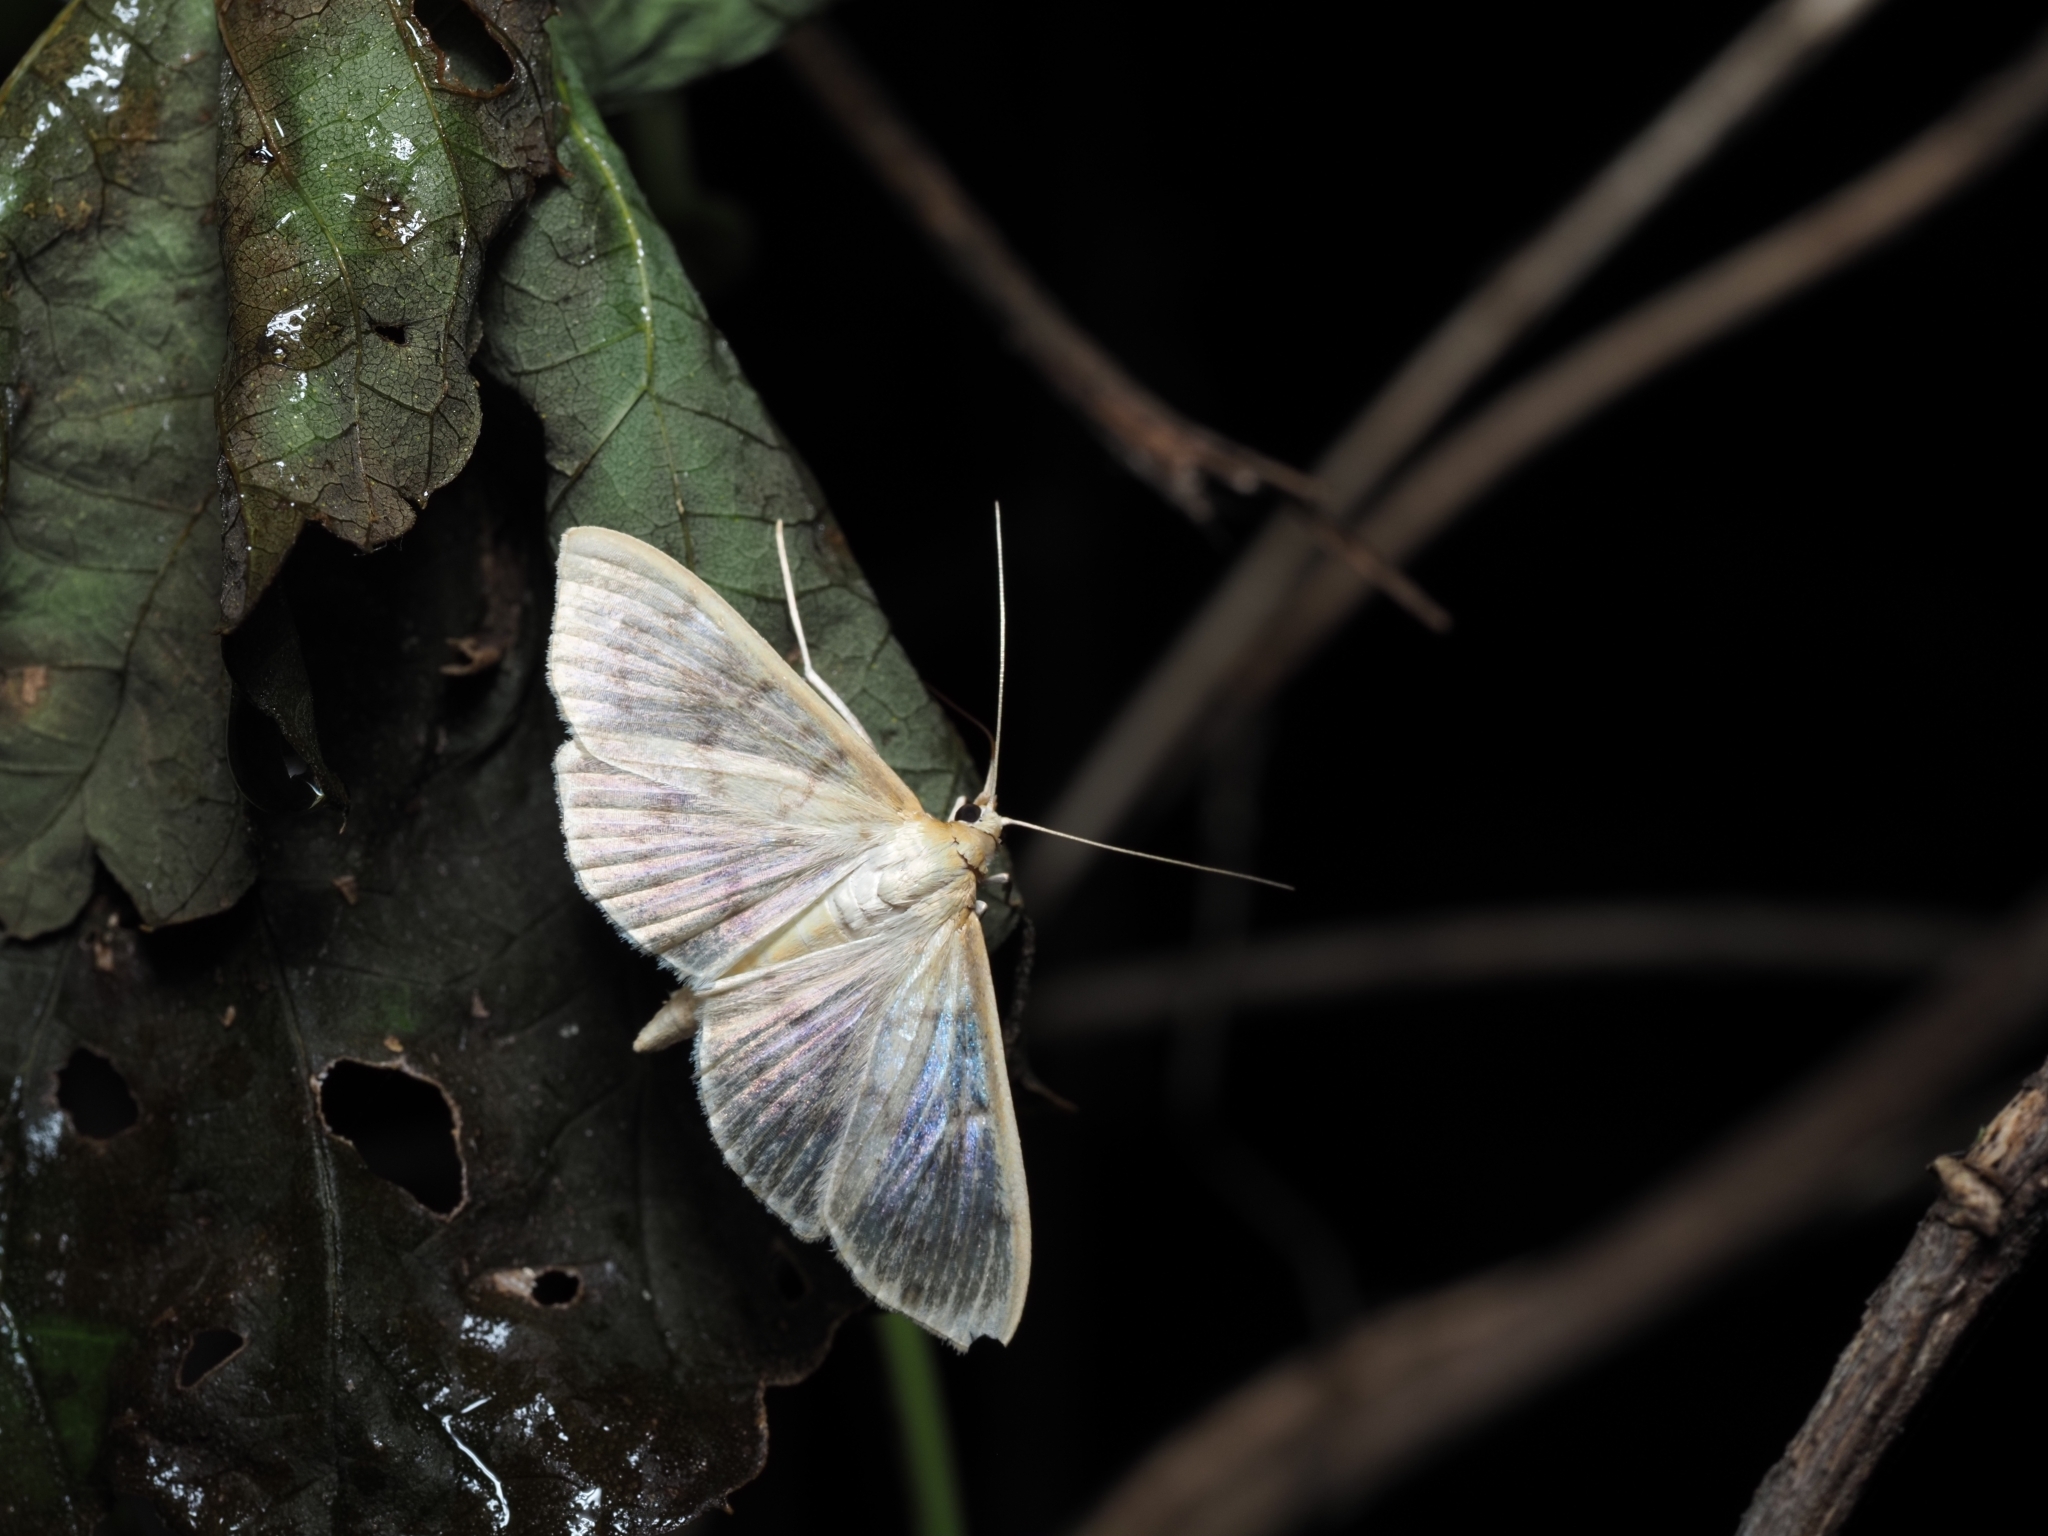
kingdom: Animalia
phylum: Arthropoda
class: Insecta
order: Lepidoptera
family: Crambidae
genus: Patania
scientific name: Patania ruralis
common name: Mother of pearl
